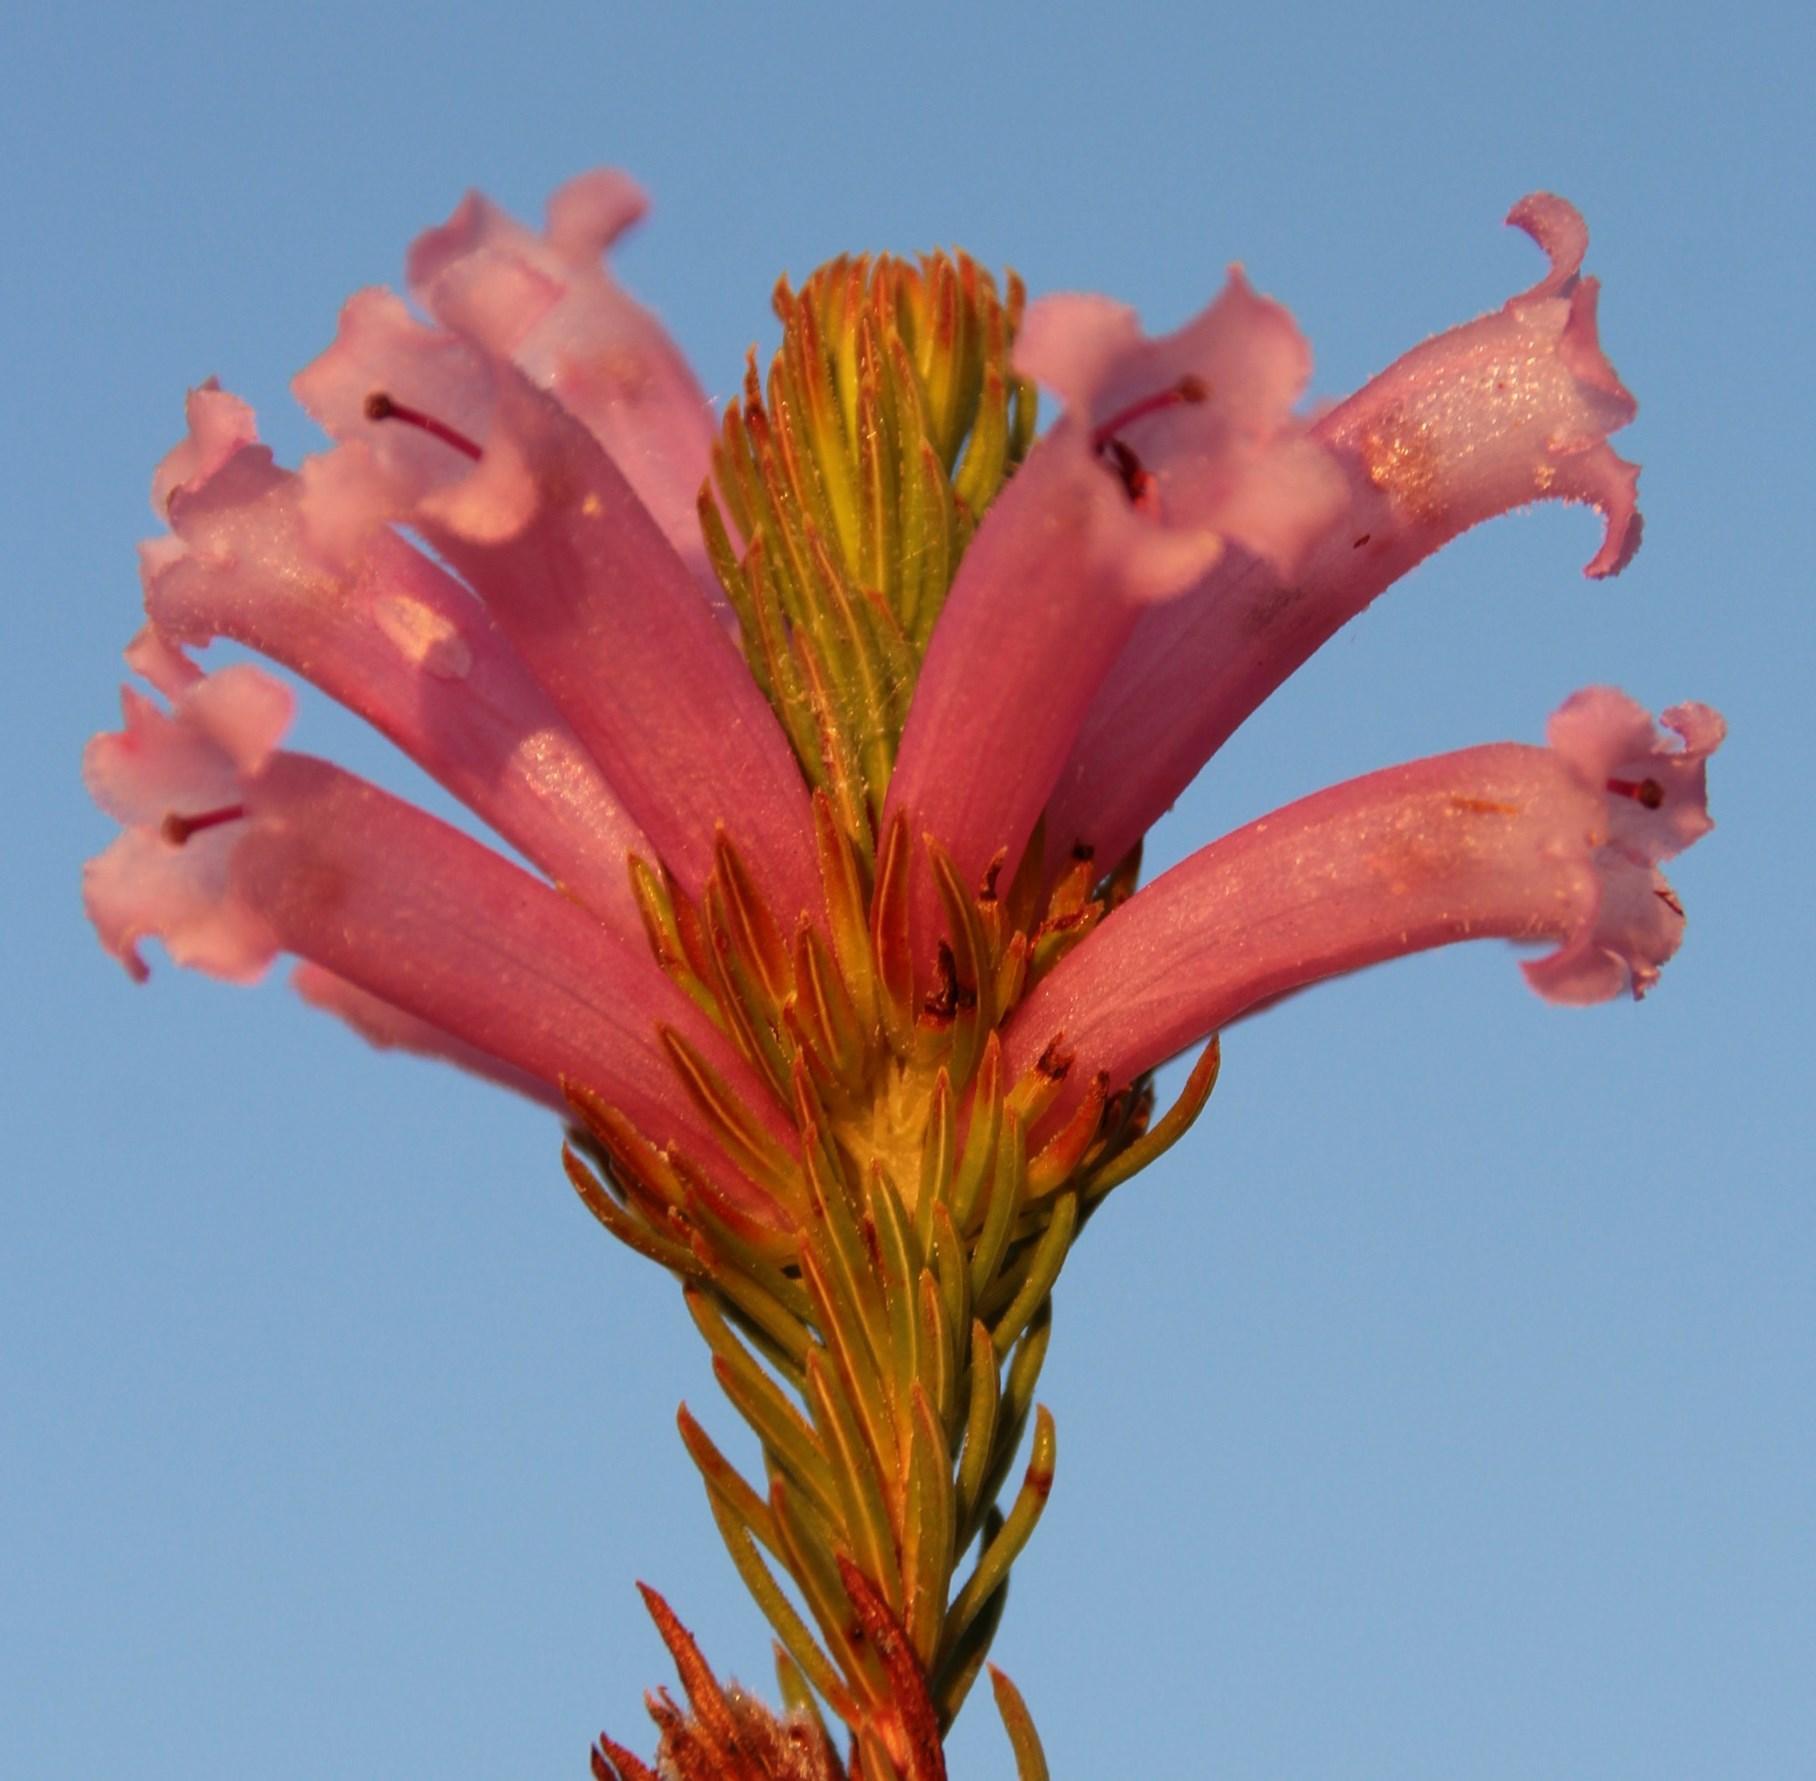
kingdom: Plantae
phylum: Tracheophyta
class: Magnoliopsida
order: Ericales
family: Ericaceae
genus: Erica
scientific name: Erica viscaria
